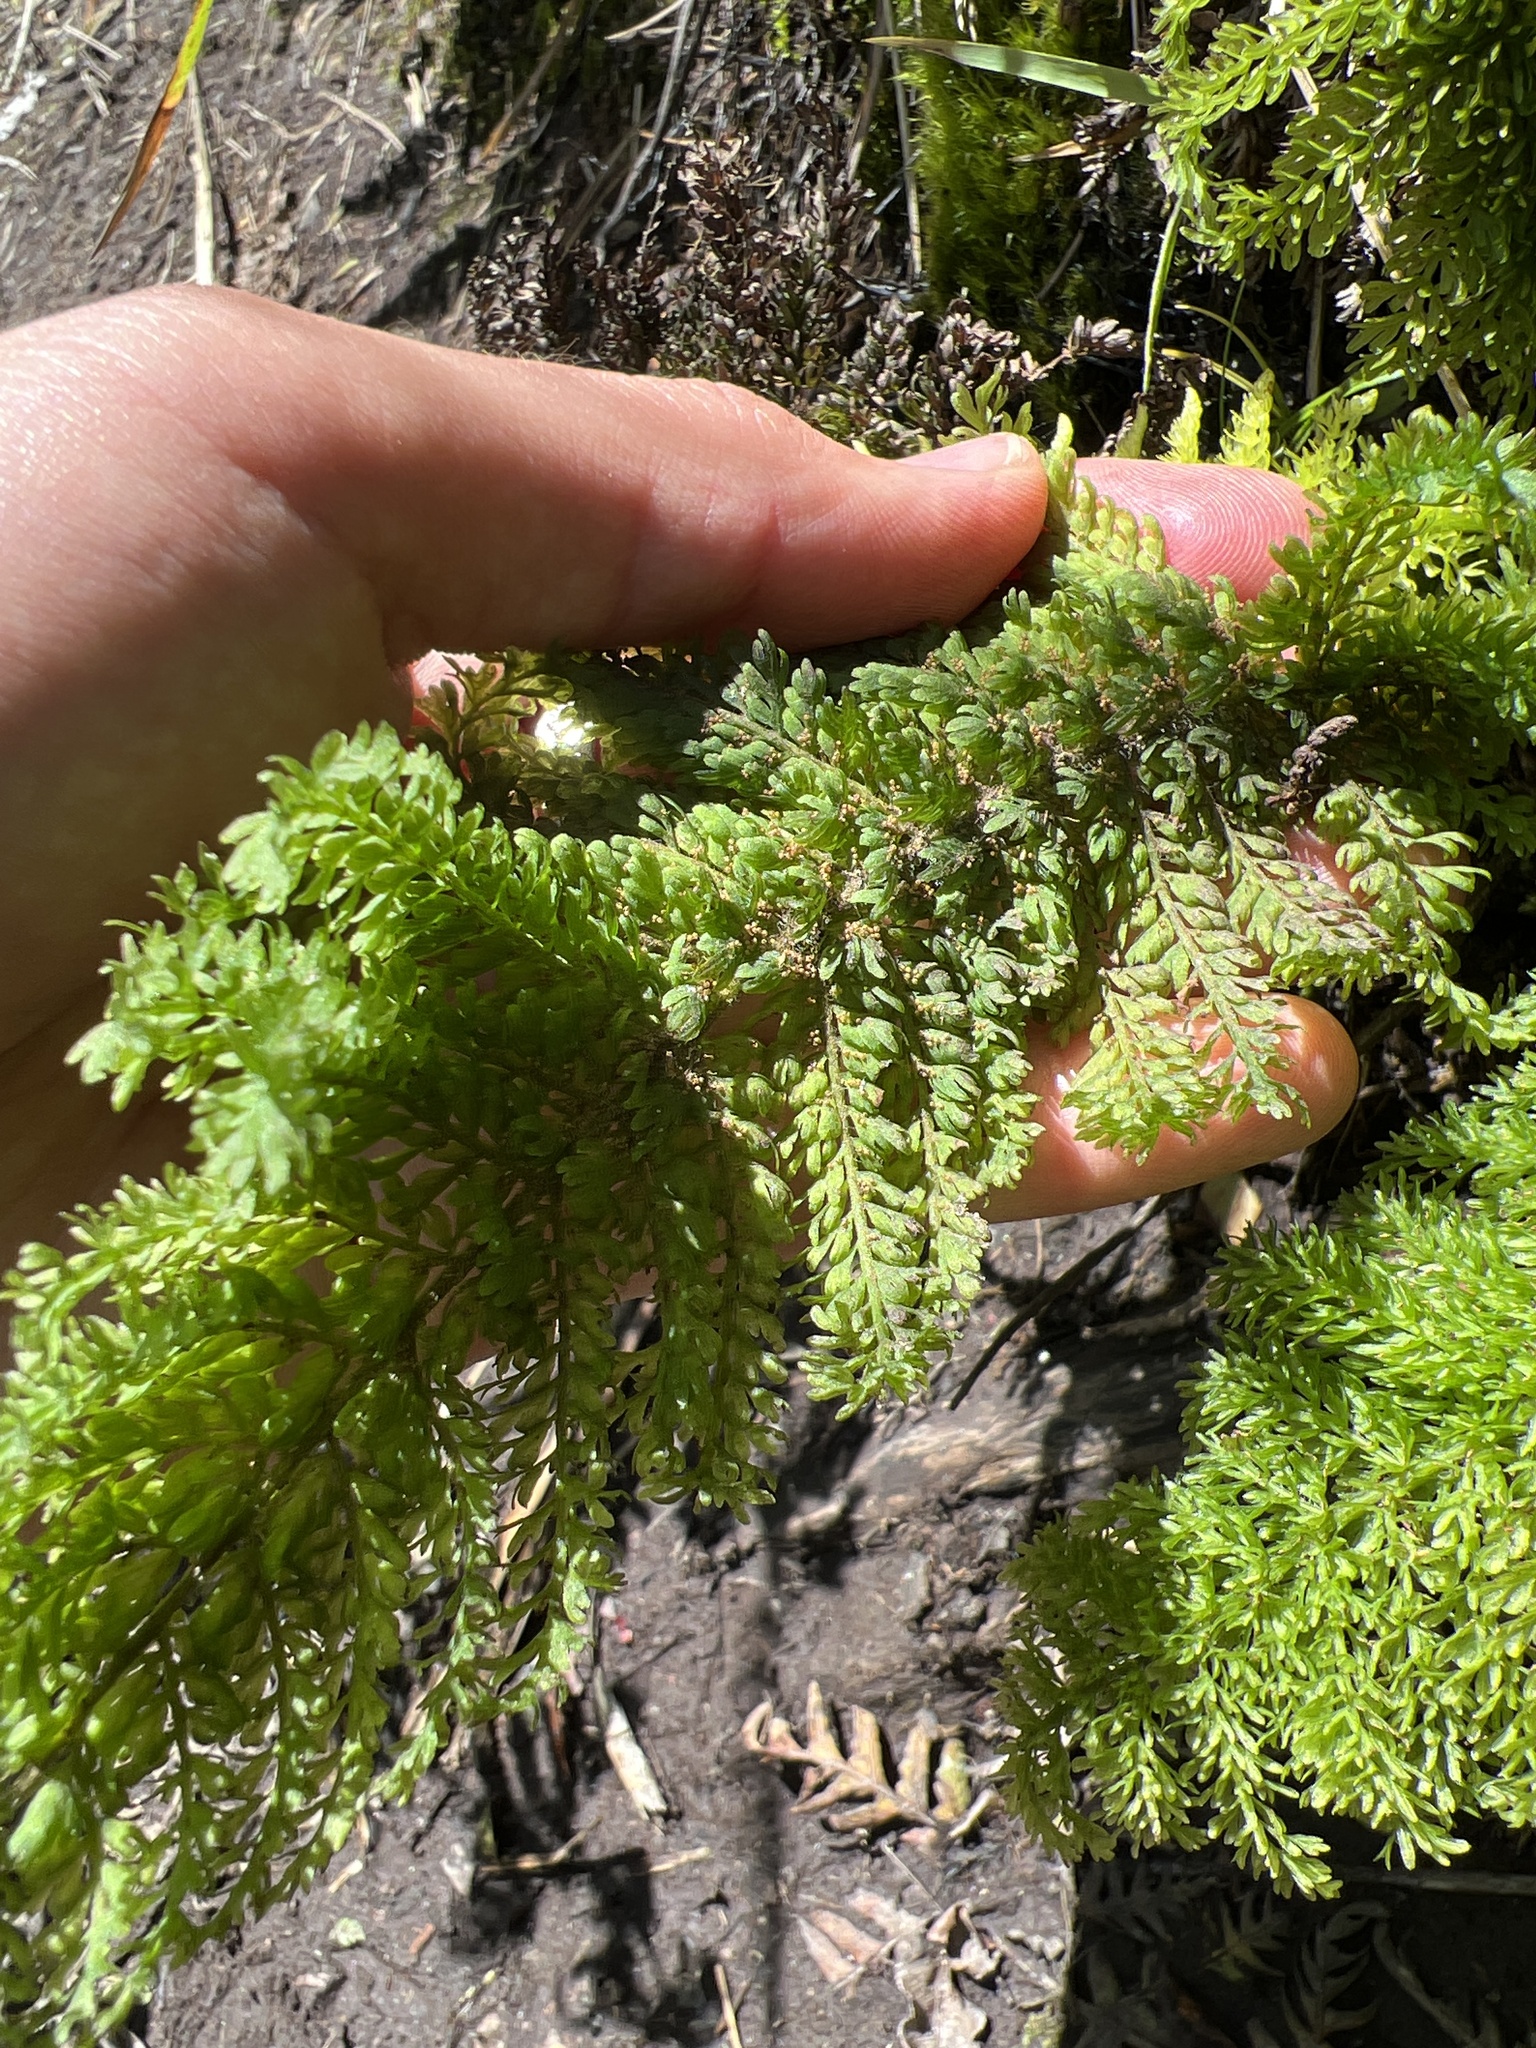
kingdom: Plantae
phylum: Tracheophyta
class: Polypodiopsida
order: Osmundales
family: Osmundaceae
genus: Leptopteris
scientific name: Leptopteris superba
